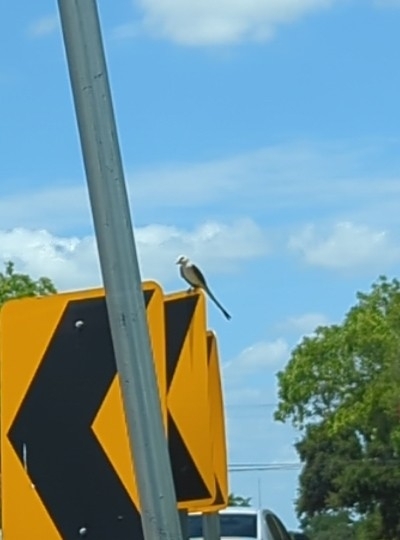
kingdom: Animalia
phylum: Chordata
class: Aves
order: Passeriformes
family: Tyrannidae
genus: Tyrannus
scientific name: Tyrannus forficatus
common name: Scissor-tailed flycatcher
